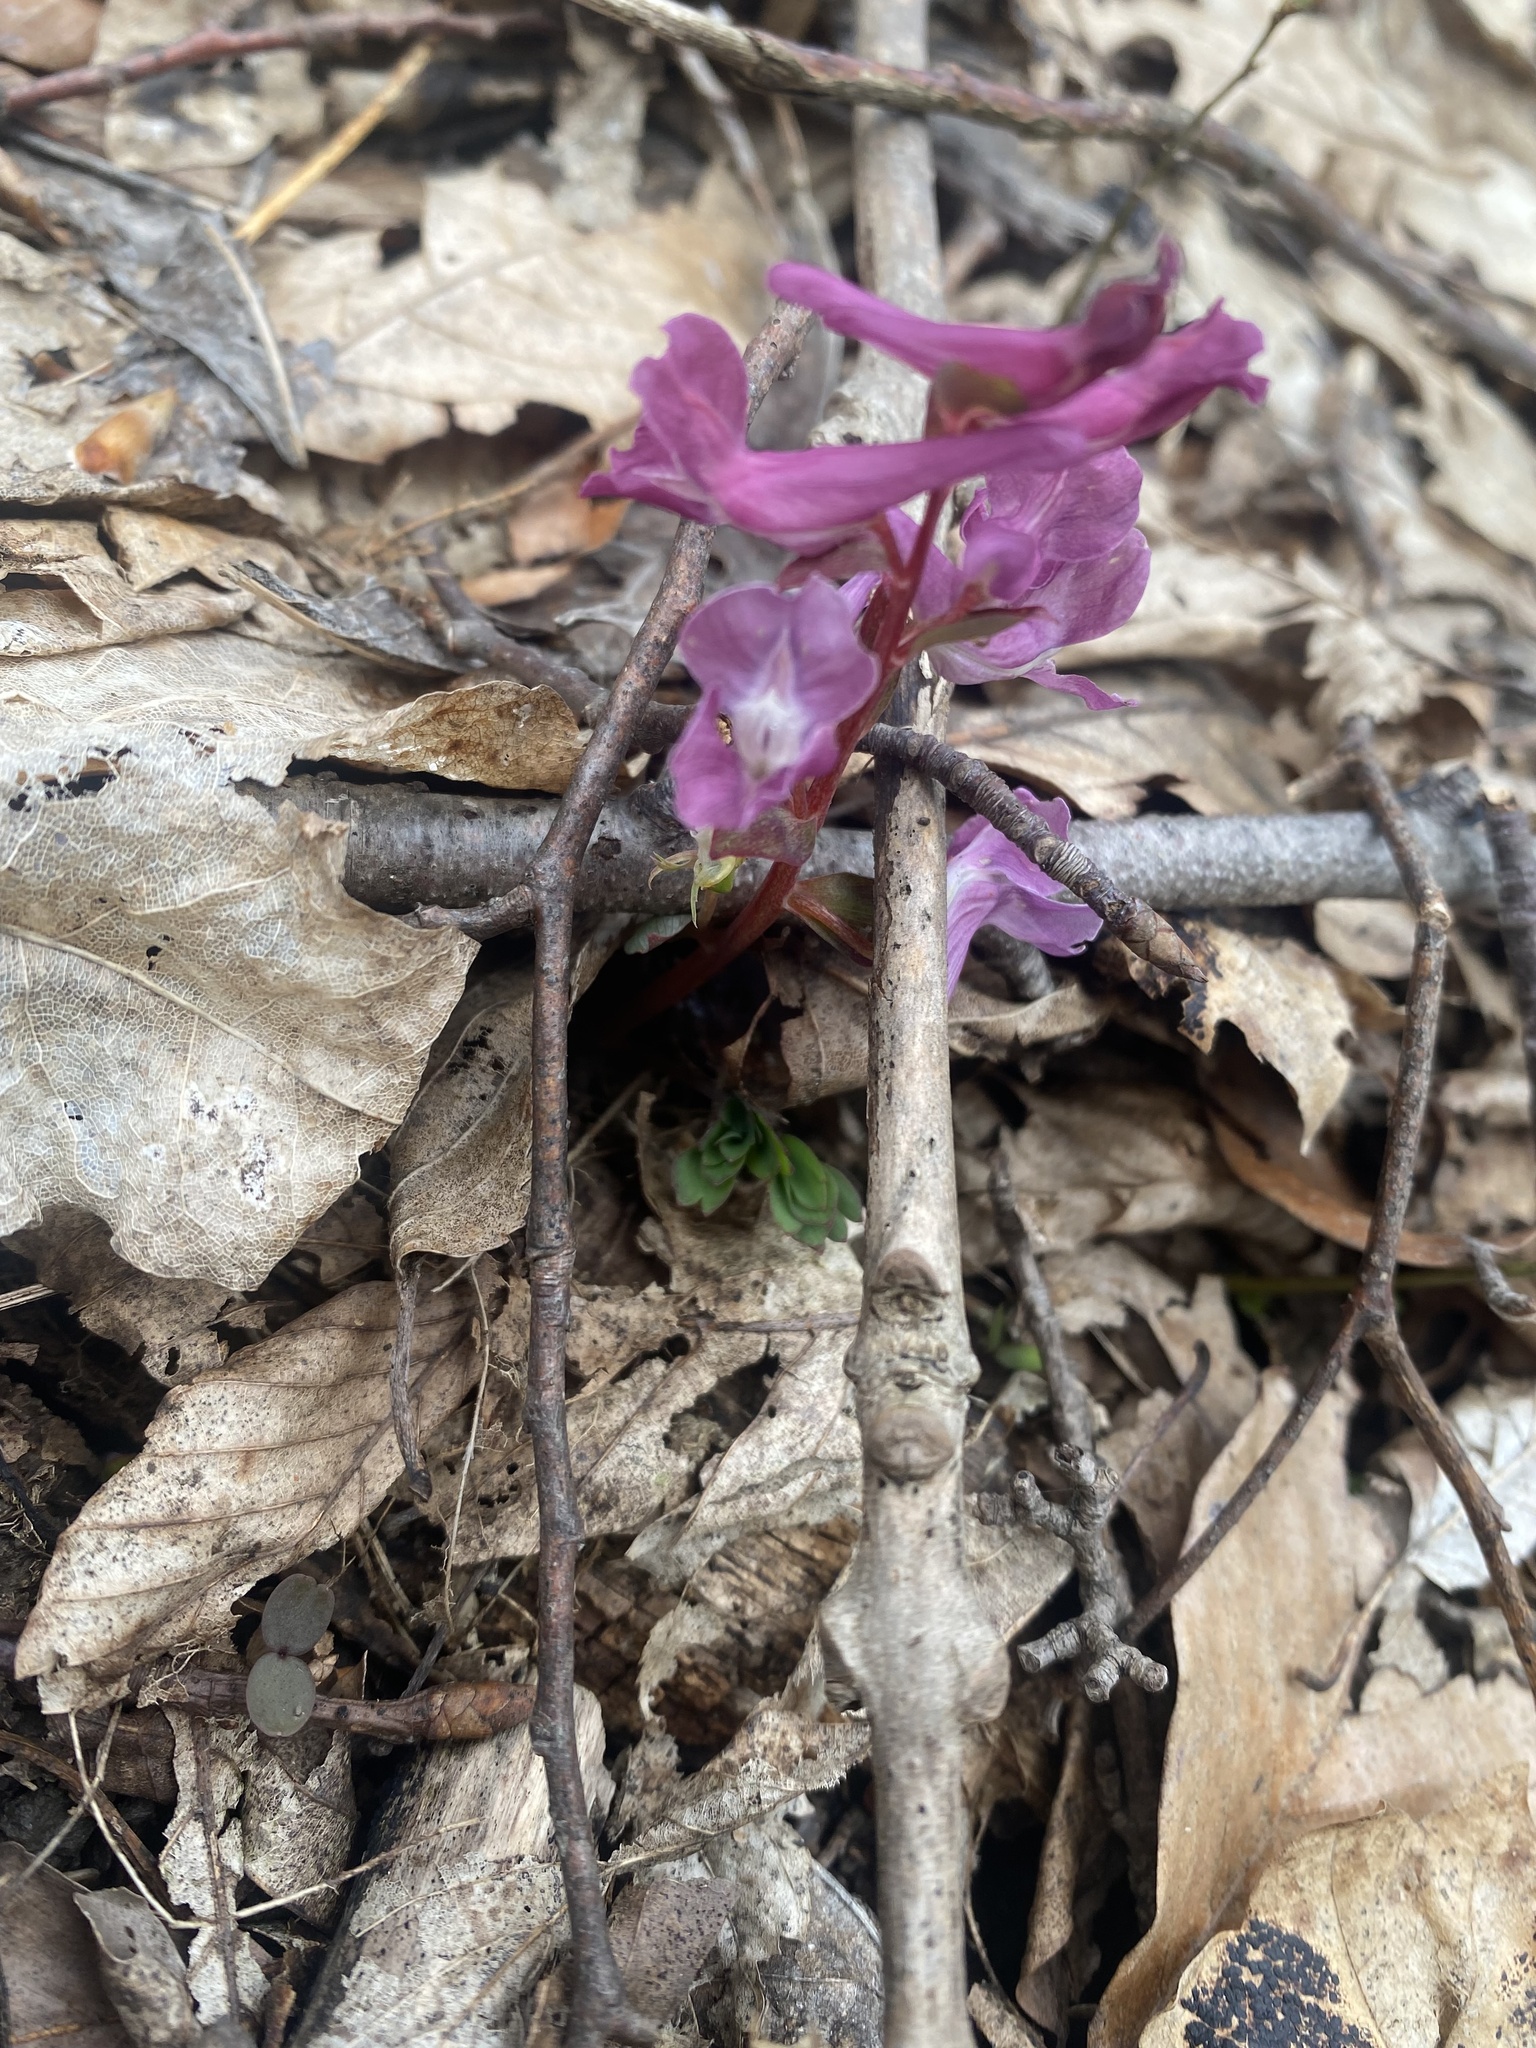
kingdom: Plantae
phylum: Tracheophyta
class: Magnoliopsida
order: Ranunculales
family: Papaveraceae
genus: Corydalis
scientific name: Corydalis caucasica
